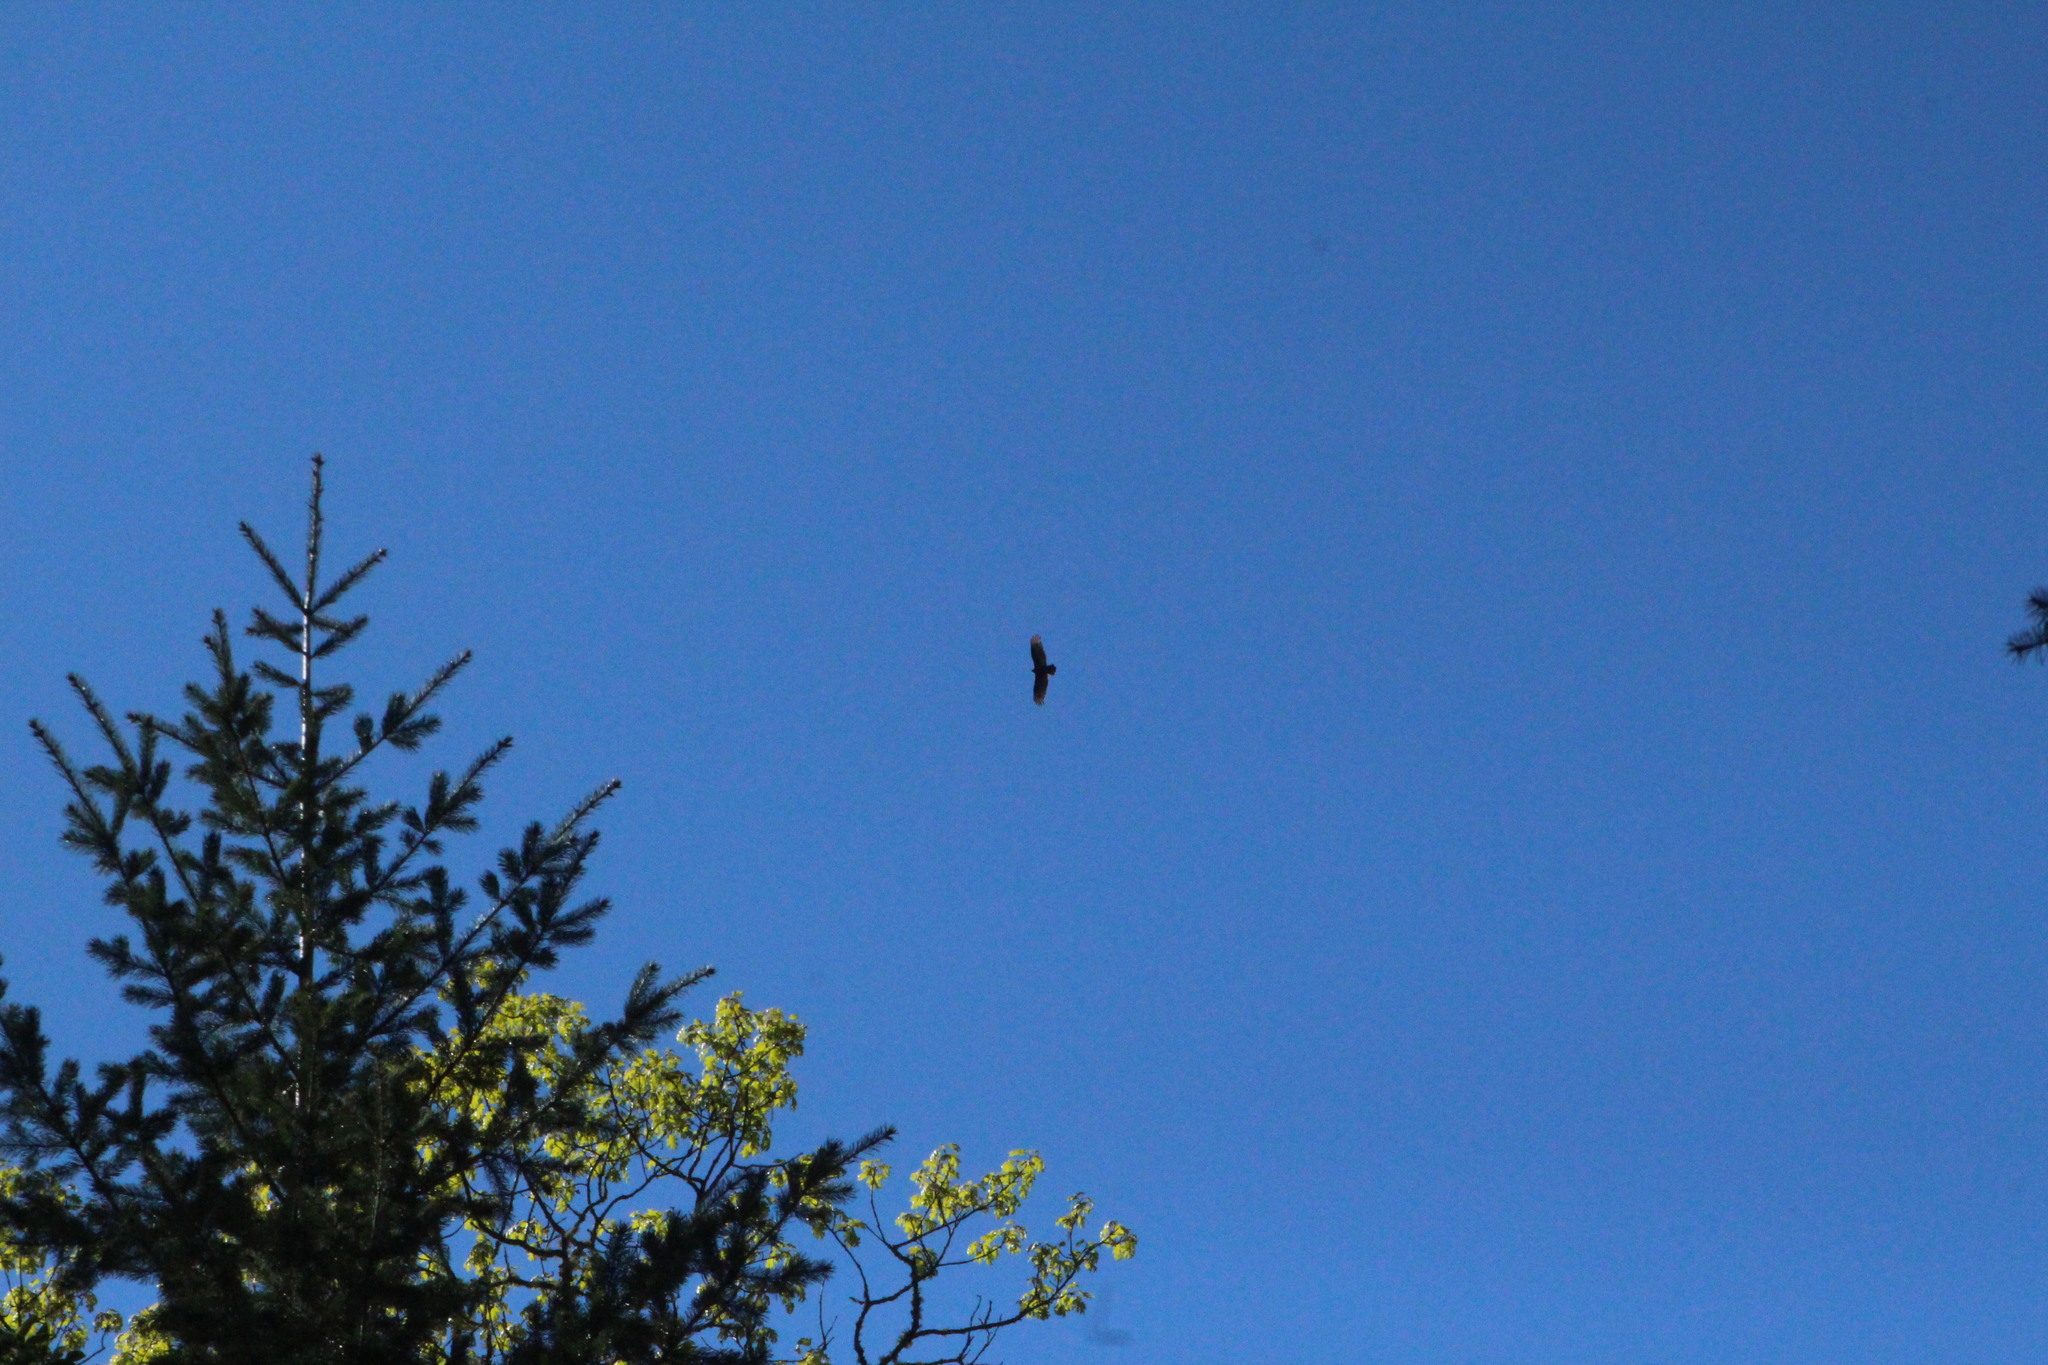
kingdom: Animalia
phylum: Chordata
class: Aves
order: Accipitriformes
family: Cathartidae
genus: Cathartes
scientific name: Cathartes aura
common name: Turkey vulture
